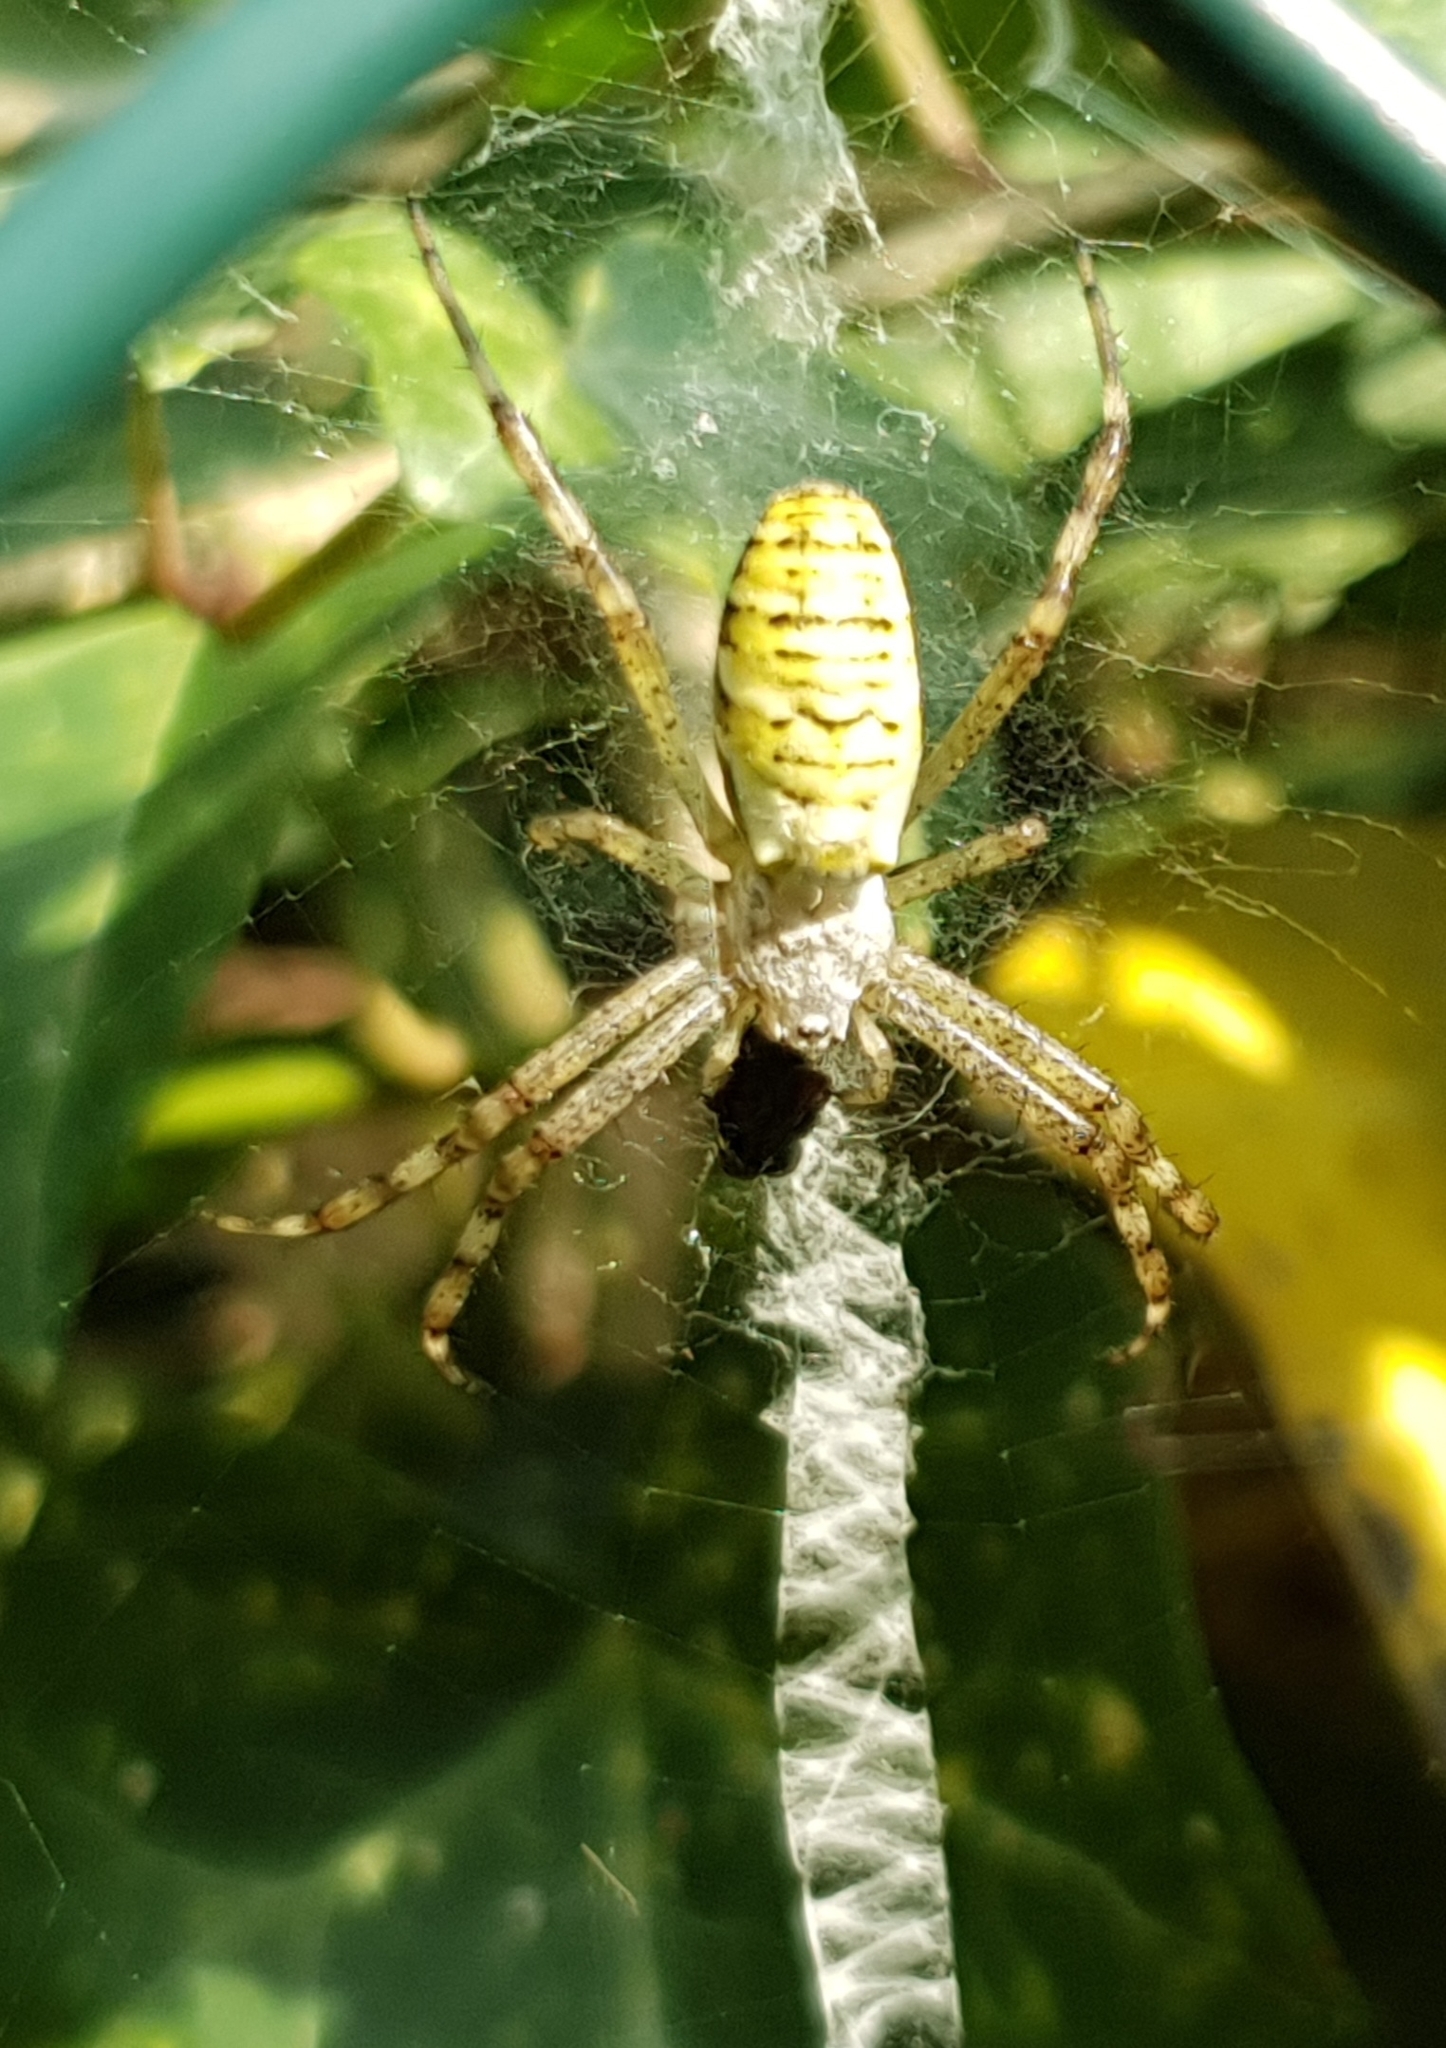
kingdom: Animalia
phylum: Arthropoda
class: Arachnida
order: Araneae
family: Araneidae
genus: Argiope
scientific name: Argiope bruennichi
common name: Wasp spider
